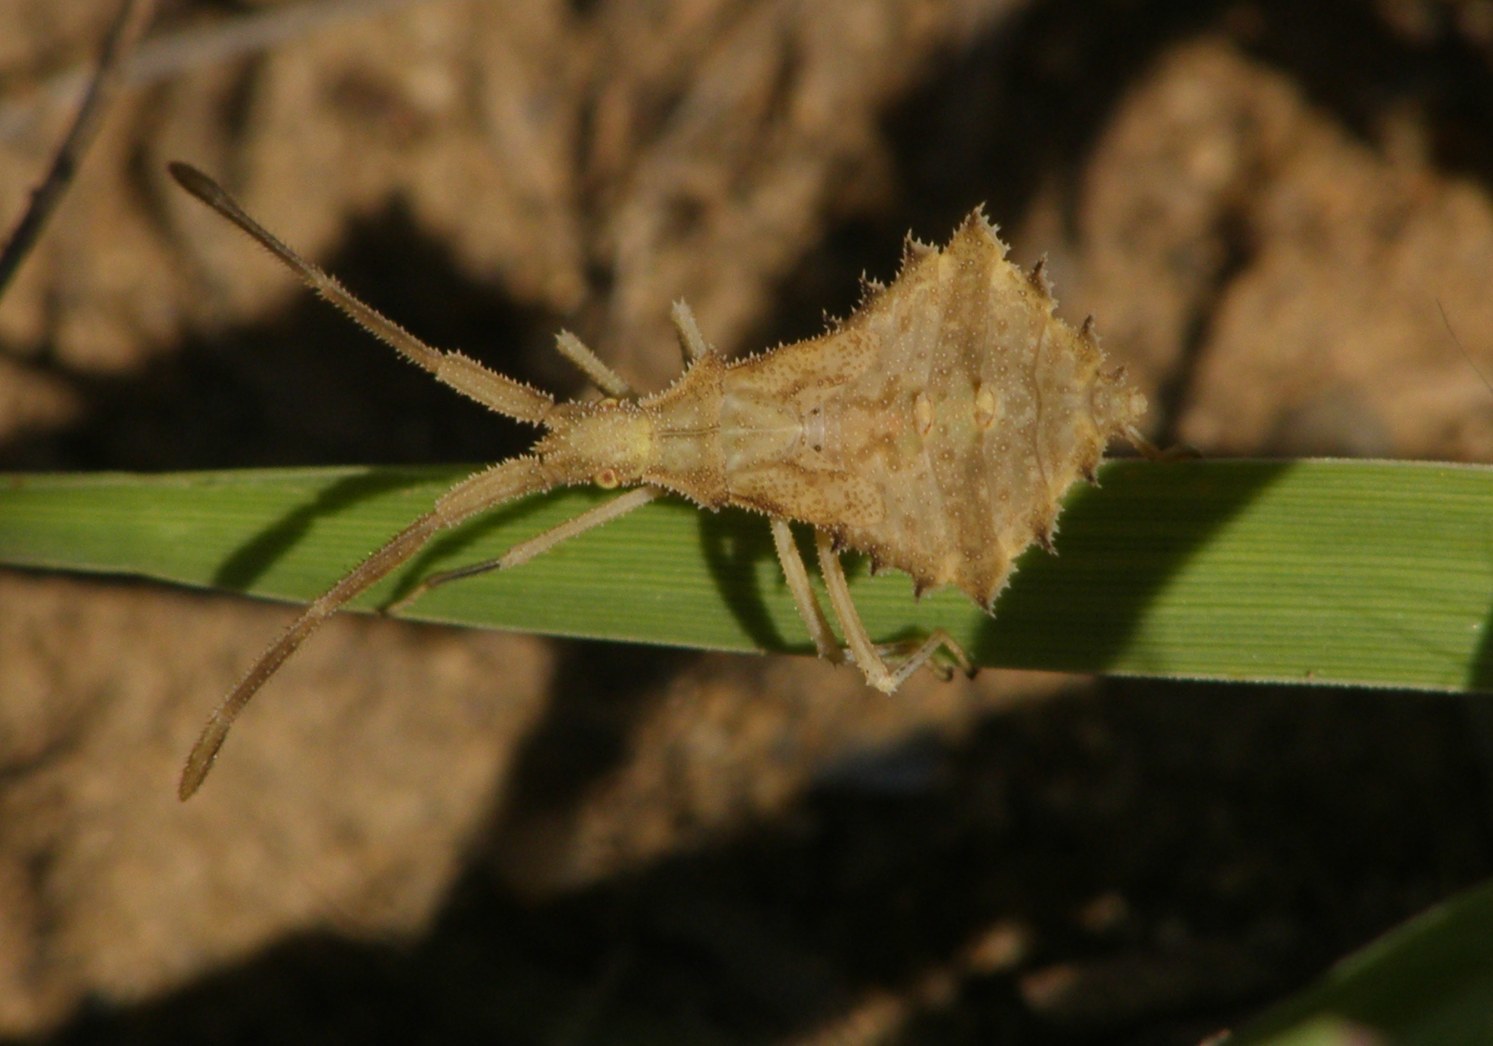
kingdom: Animalia
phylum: Arthropoda
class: Insecta
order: Hemiptera
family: Coreidae
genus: Syromastus
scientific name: Syromastus rhombeus
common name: Rhombic leatherbug
